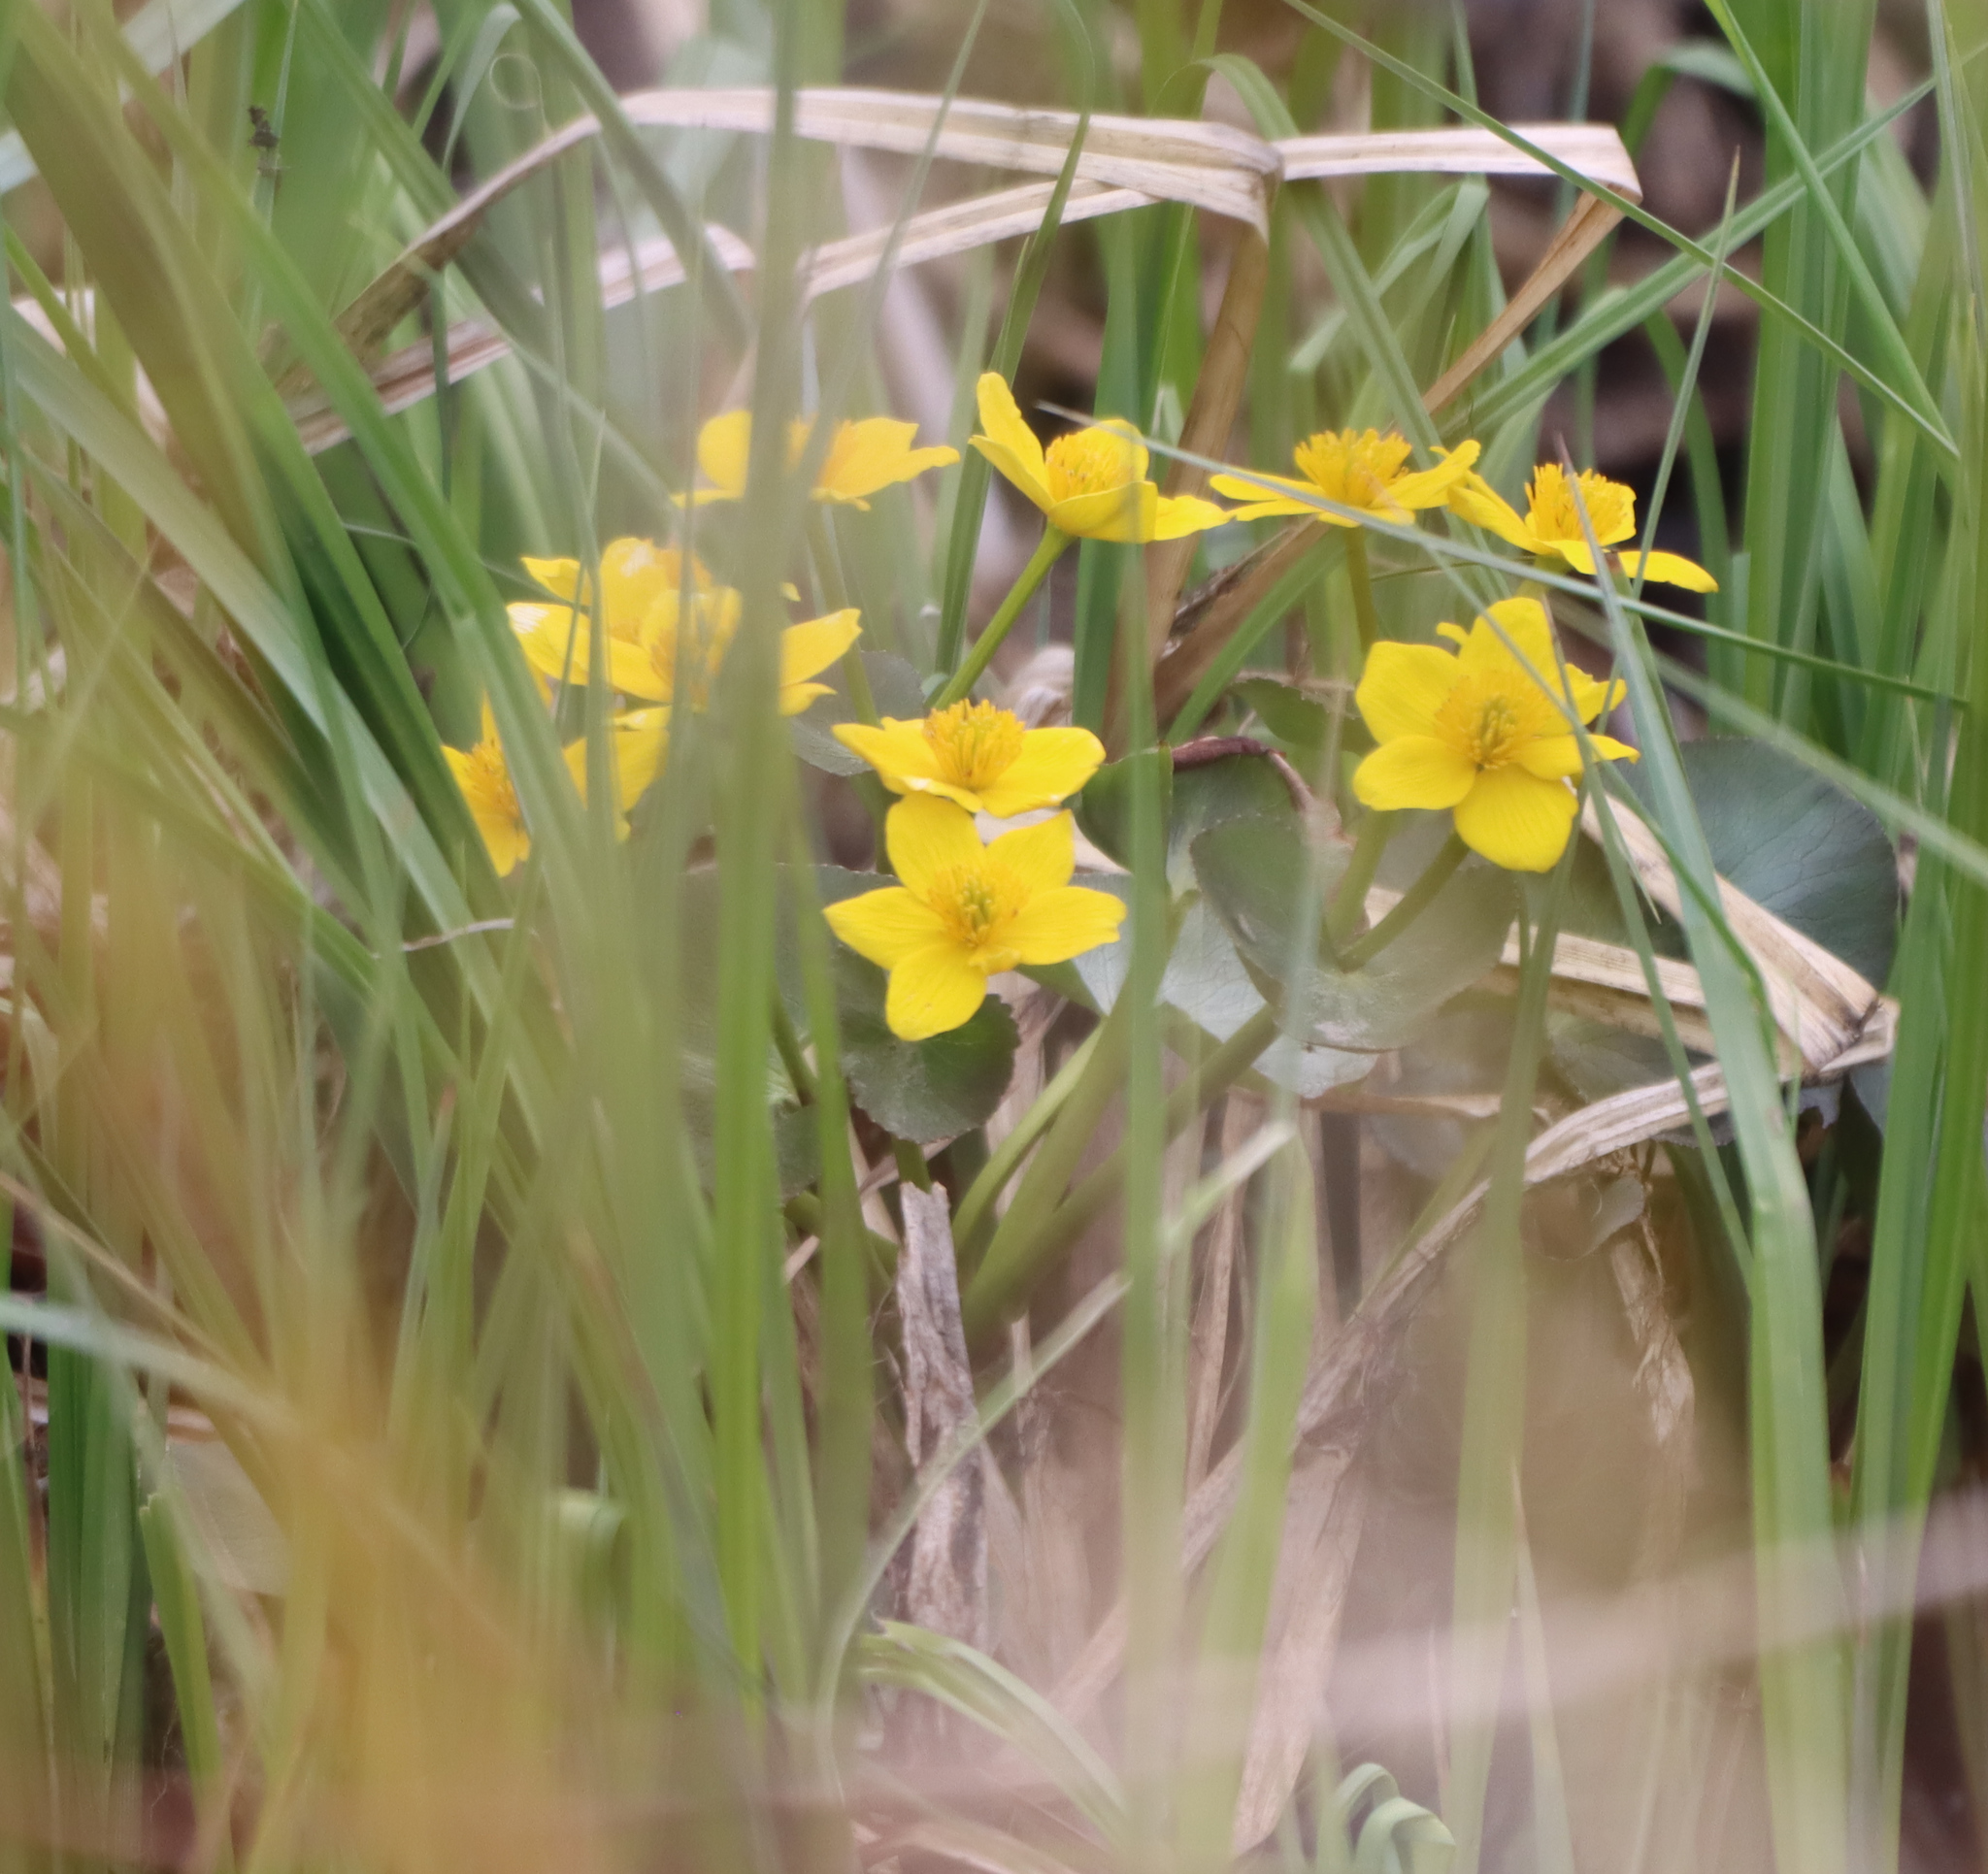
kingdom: Plantae
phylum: Tracheophyta
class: Magnoliopsida
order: Ranunculales
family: Ranunculaceae
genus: Caltha
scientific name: Caltha palustris
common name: Marsh marigold
